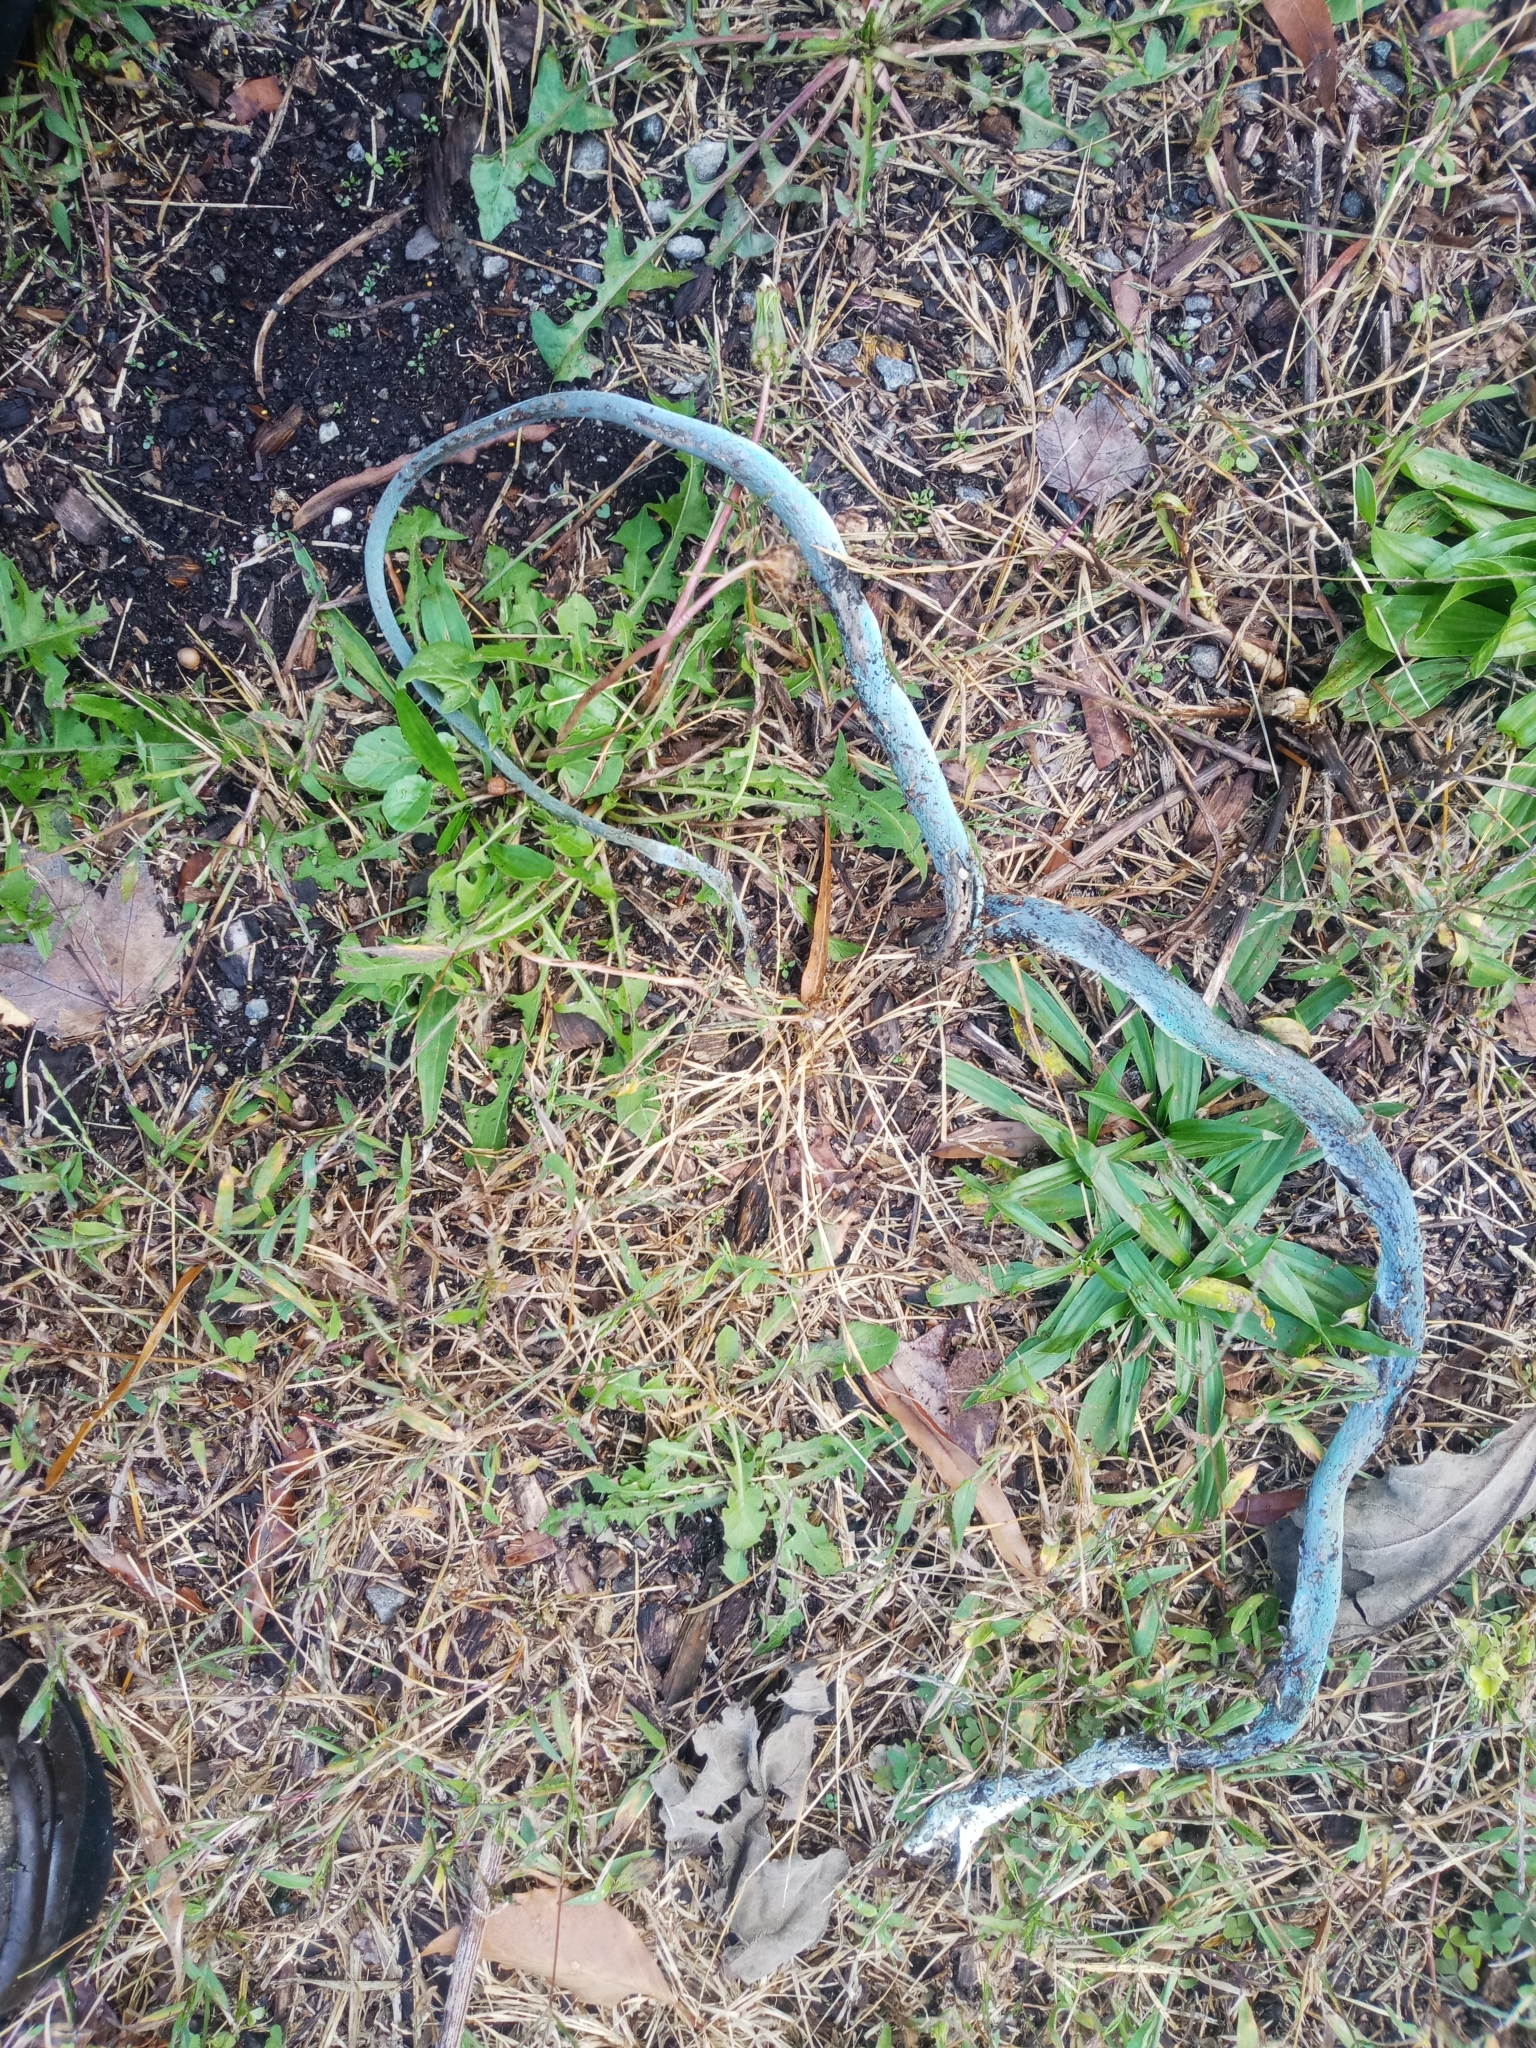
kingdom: Animalia
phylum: Chordata
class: Squamata
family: Colubridae
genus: Opheodrys
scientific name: Opheodrys aestivus
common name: Rough greensnake
